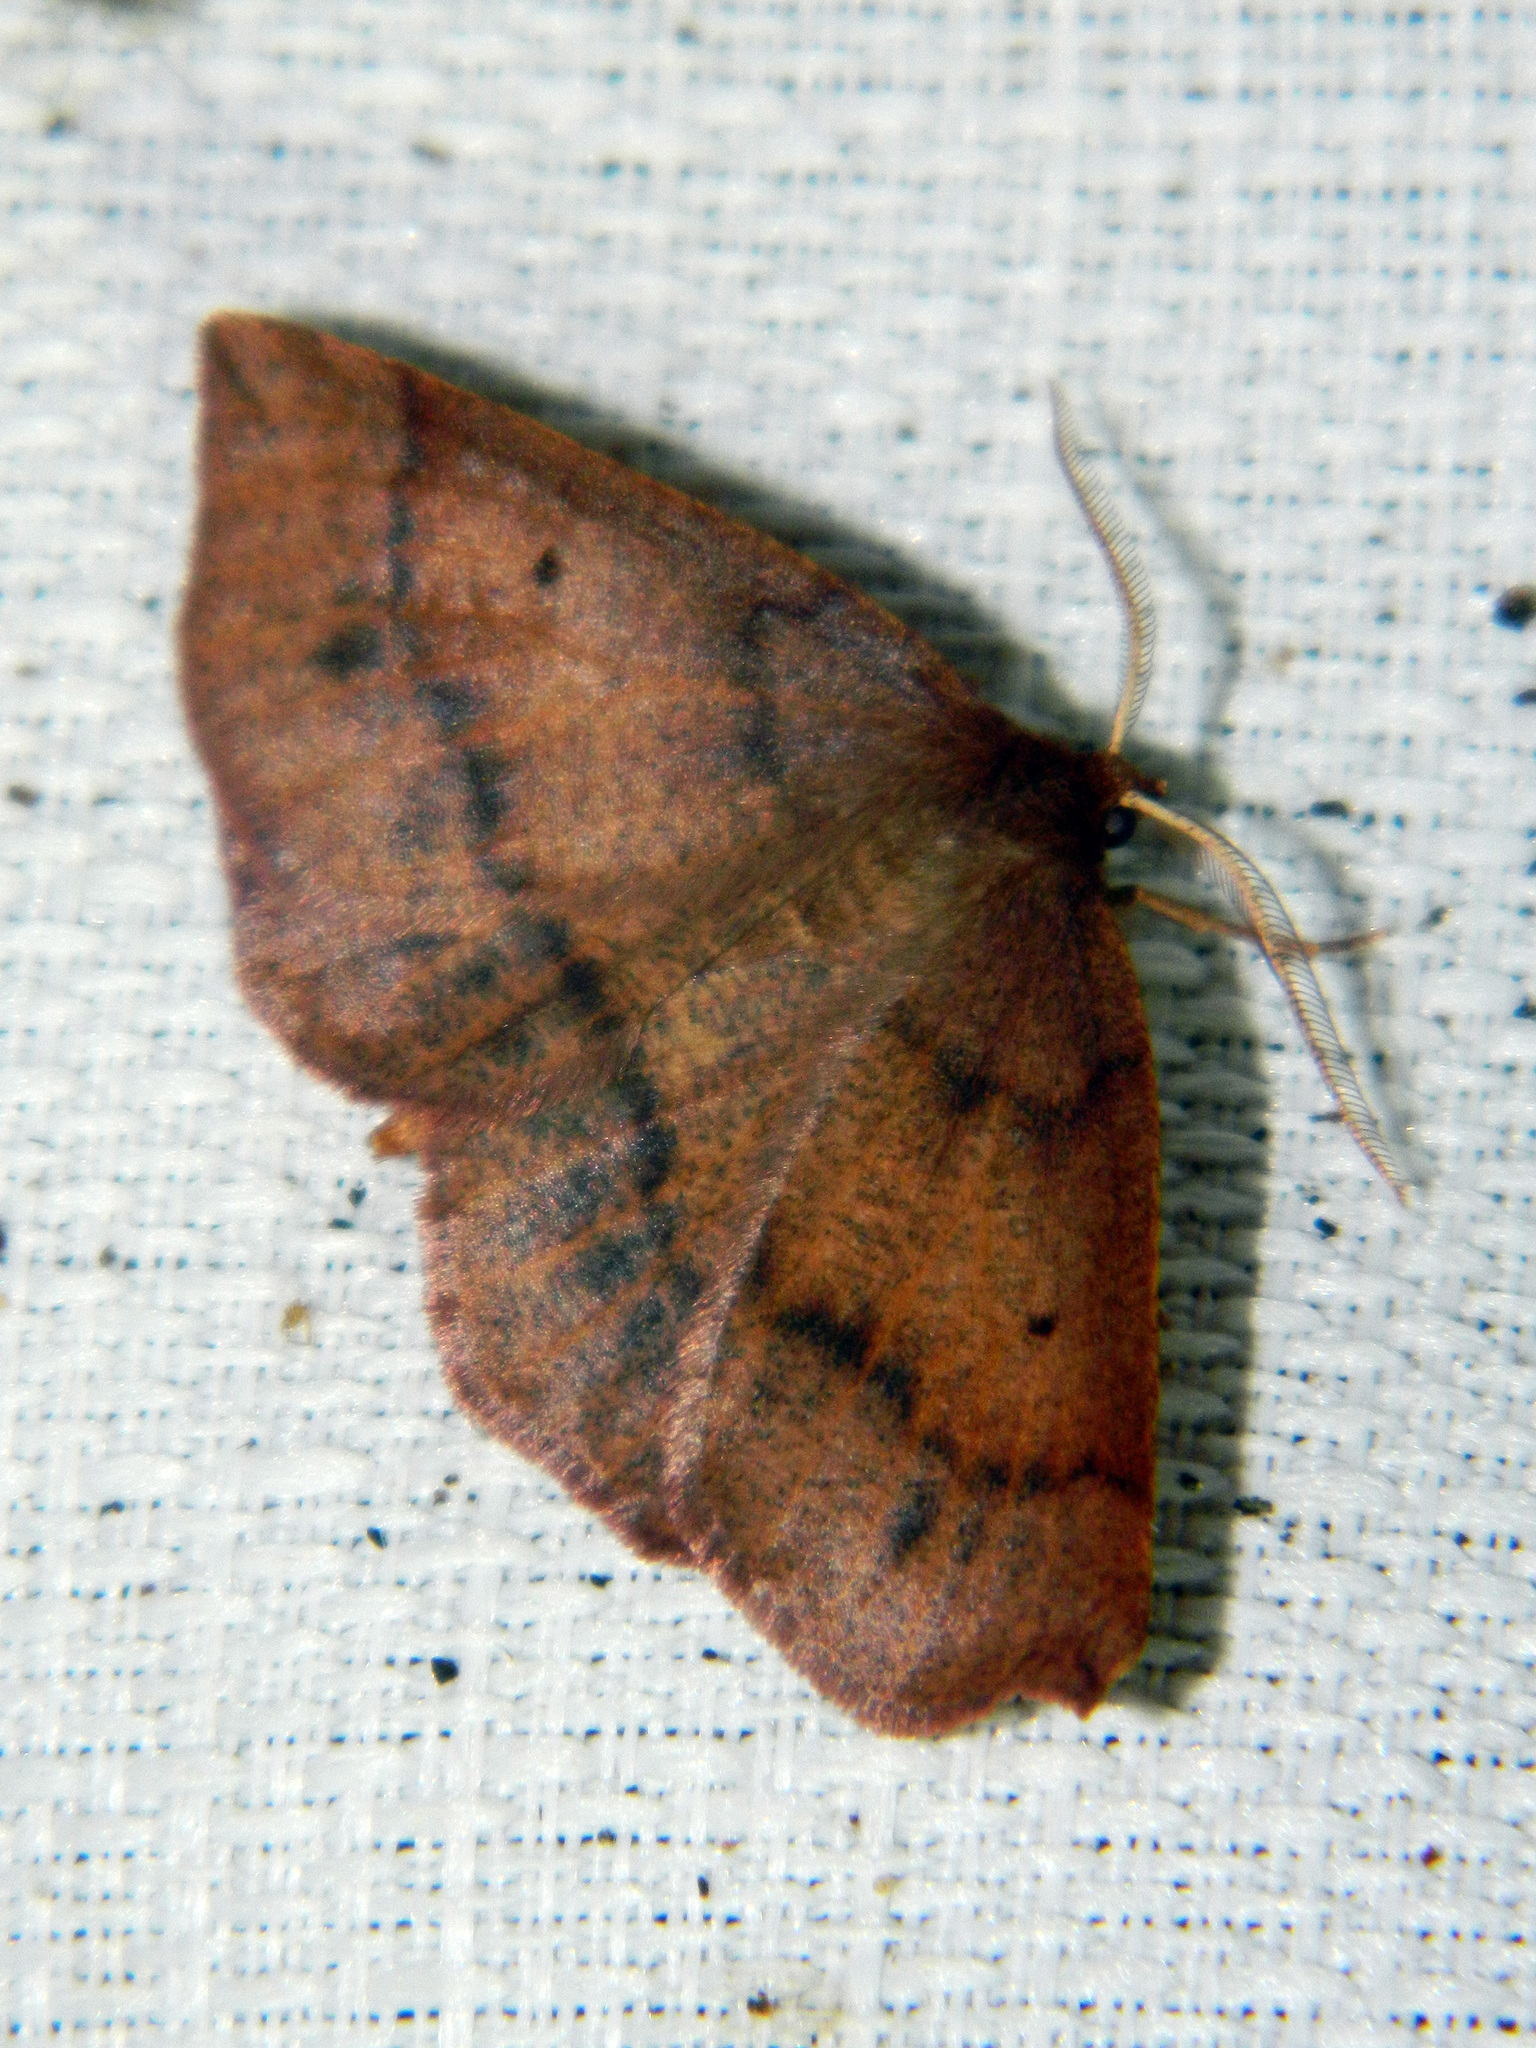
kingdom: Animalia
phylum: Arthropoda
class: Insecta
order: Lepidoptera
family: Geometridae
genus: Metarranthis
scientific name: Metarranthis duaria
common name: Ruddy metarranthis moth
